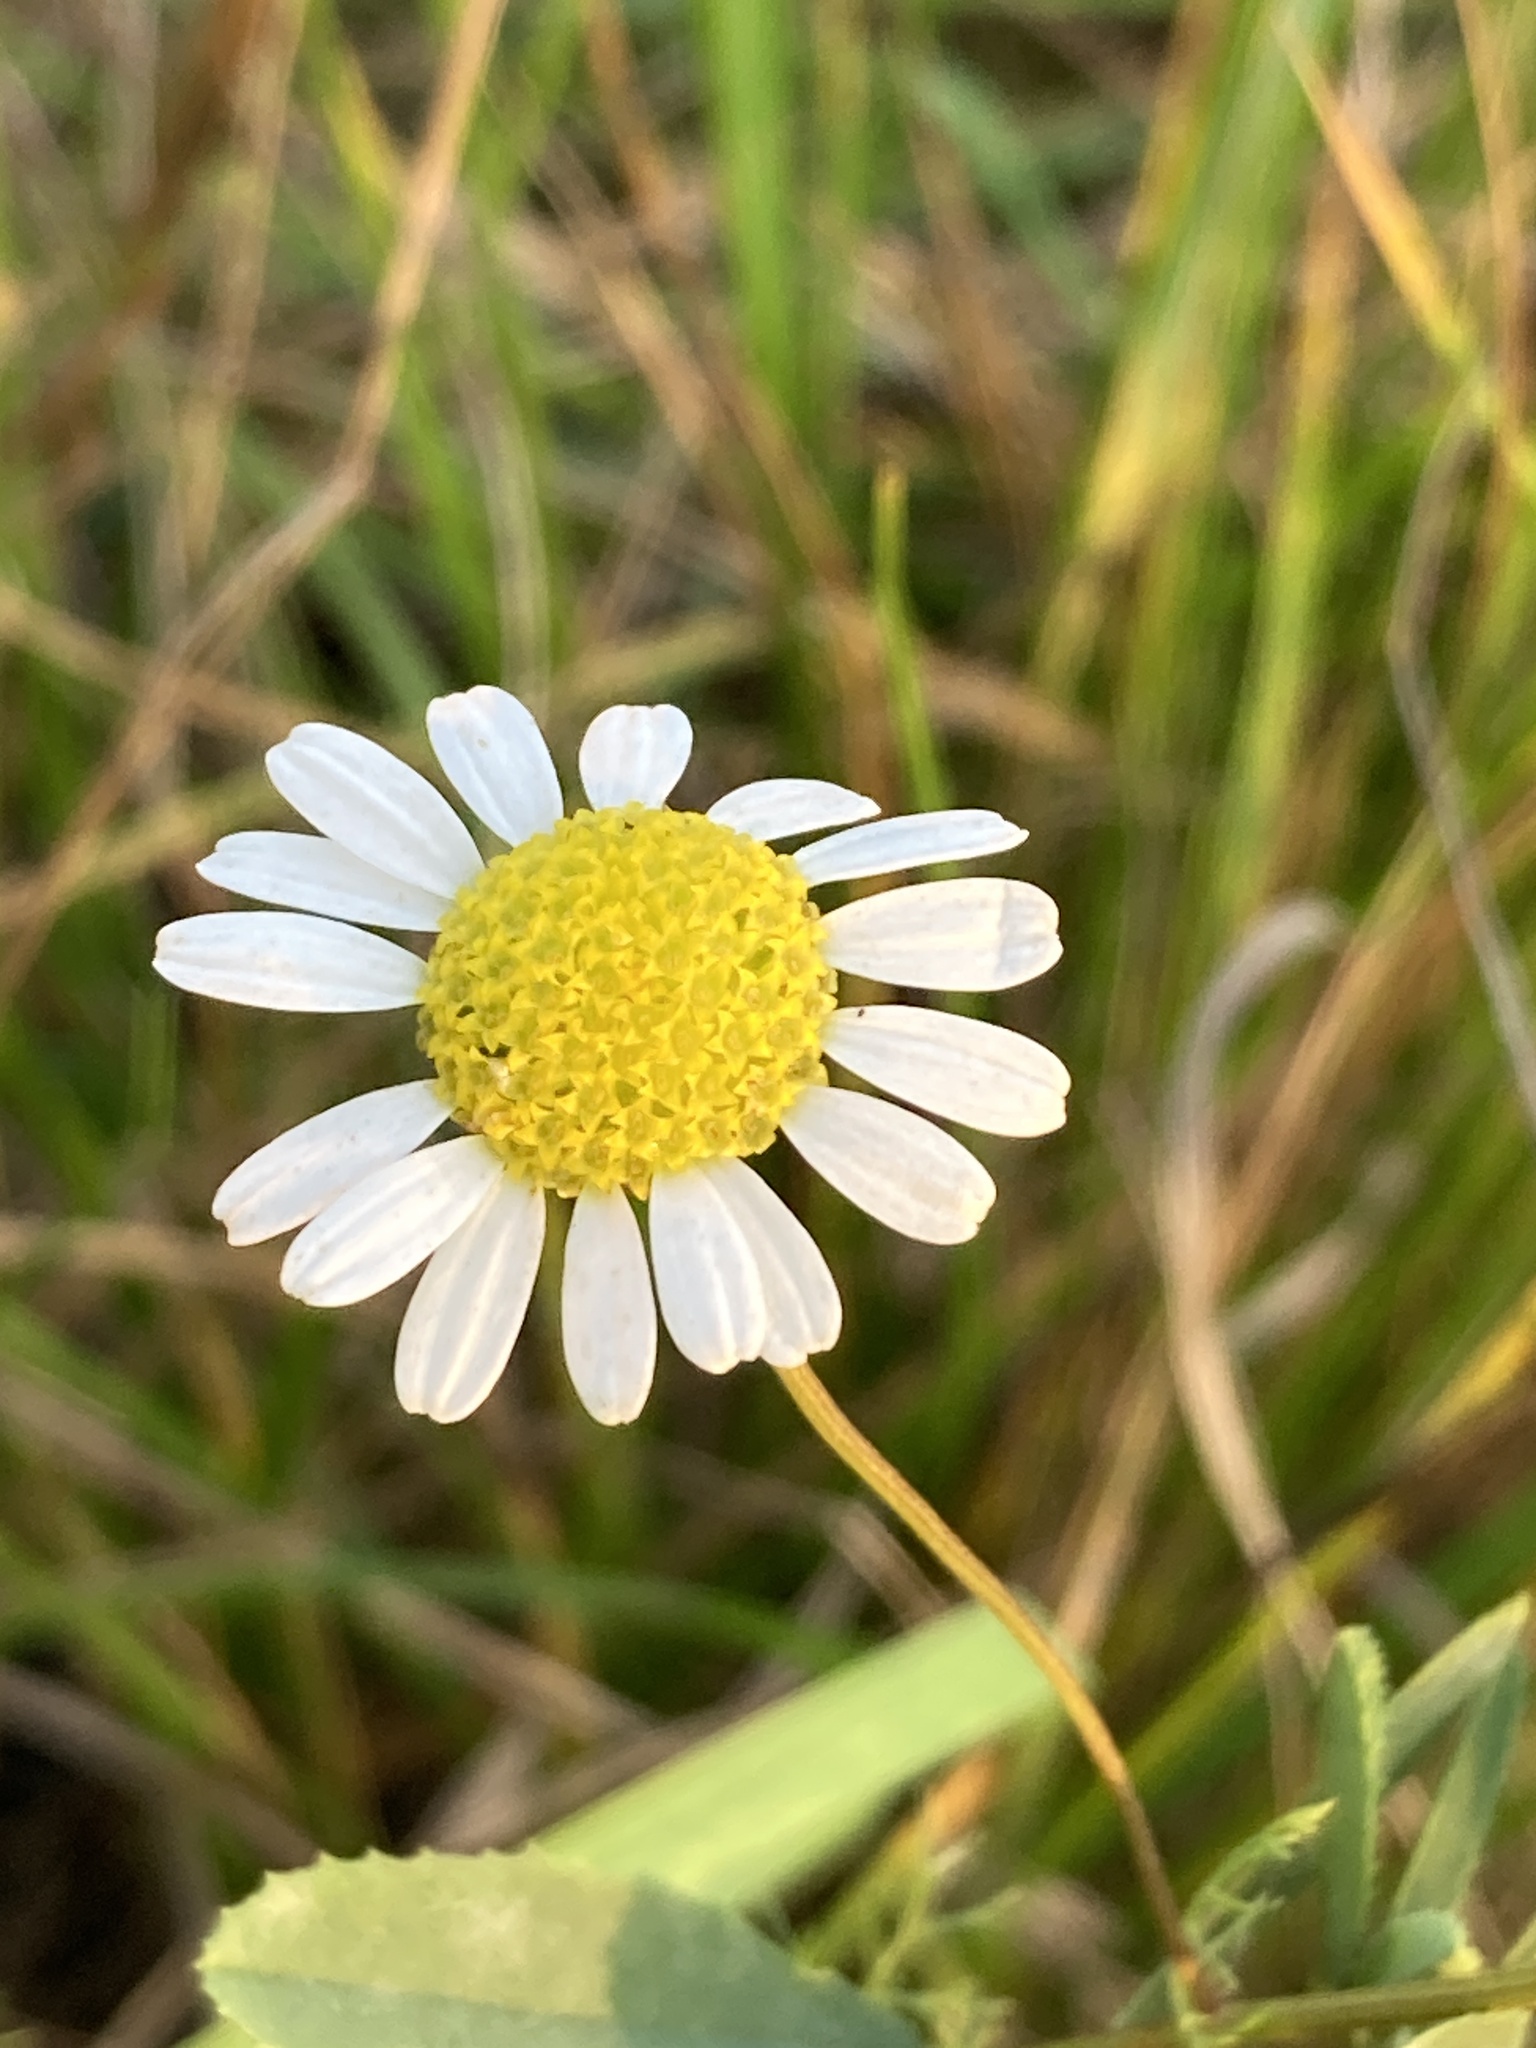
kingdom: Plantae
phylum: Tracheophyta
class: Magnoliopsida
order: Asterales
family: Asteraceae
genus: Tripleurospermum
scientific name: Tripleurospermum inodorum
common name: Scentless mayweed
